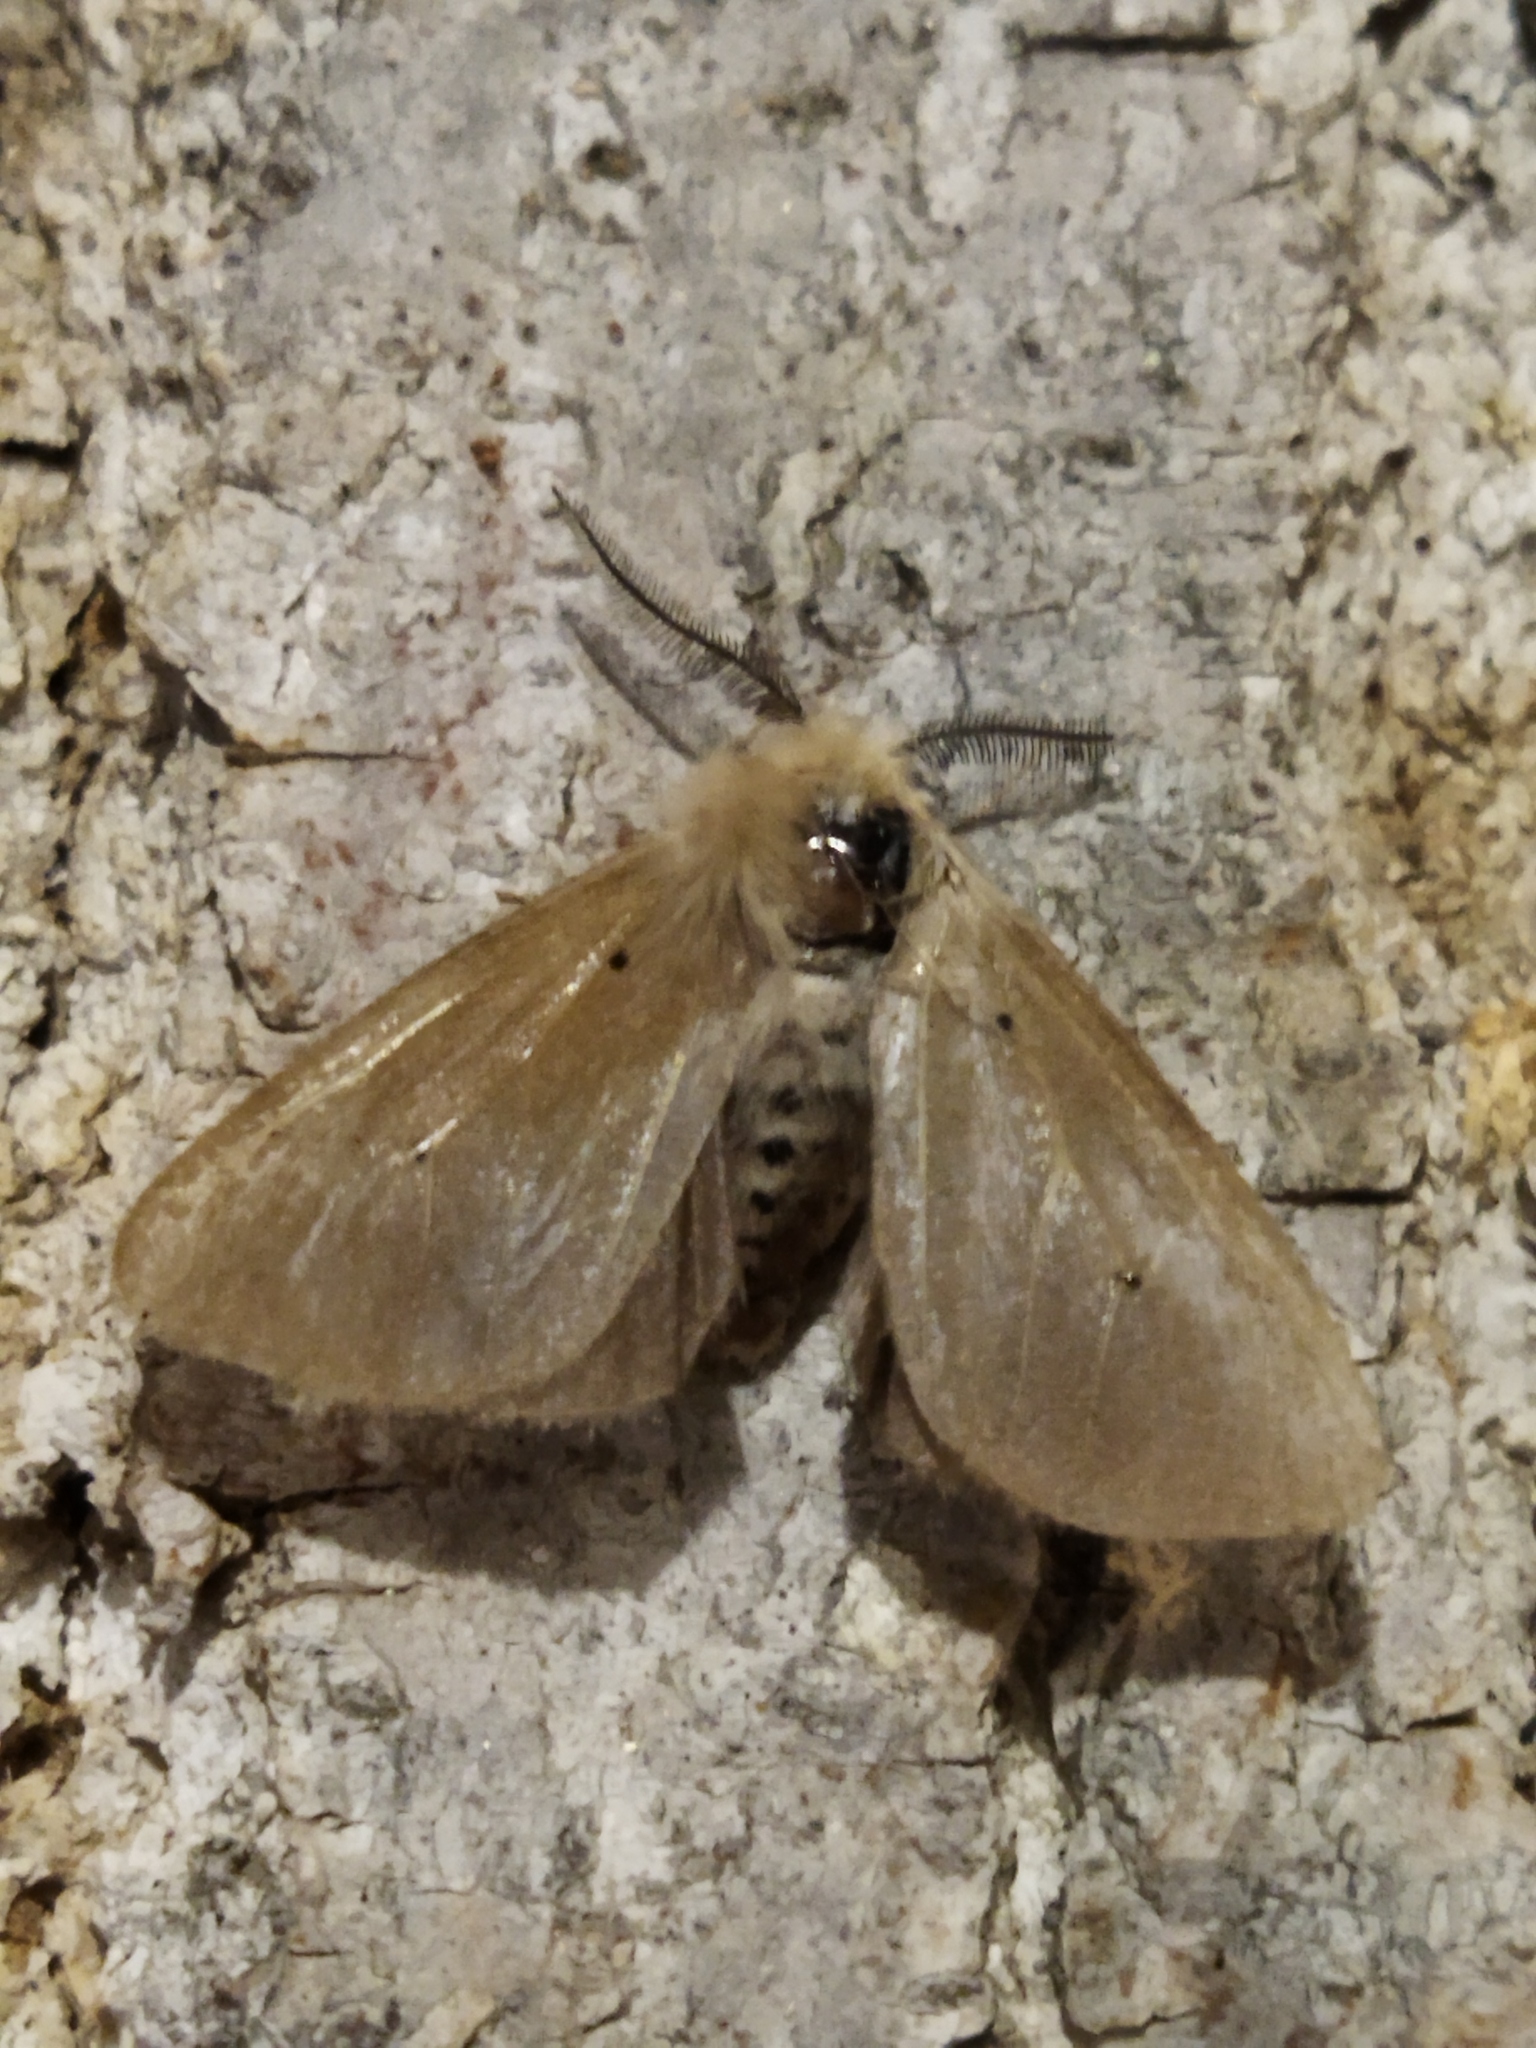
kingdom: Animalia
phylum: Arthropoda
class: Insecta
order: Lepidoptera
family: Erebidae
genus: Diaphora
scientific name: Diaphora mendica
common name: Muslin moth
